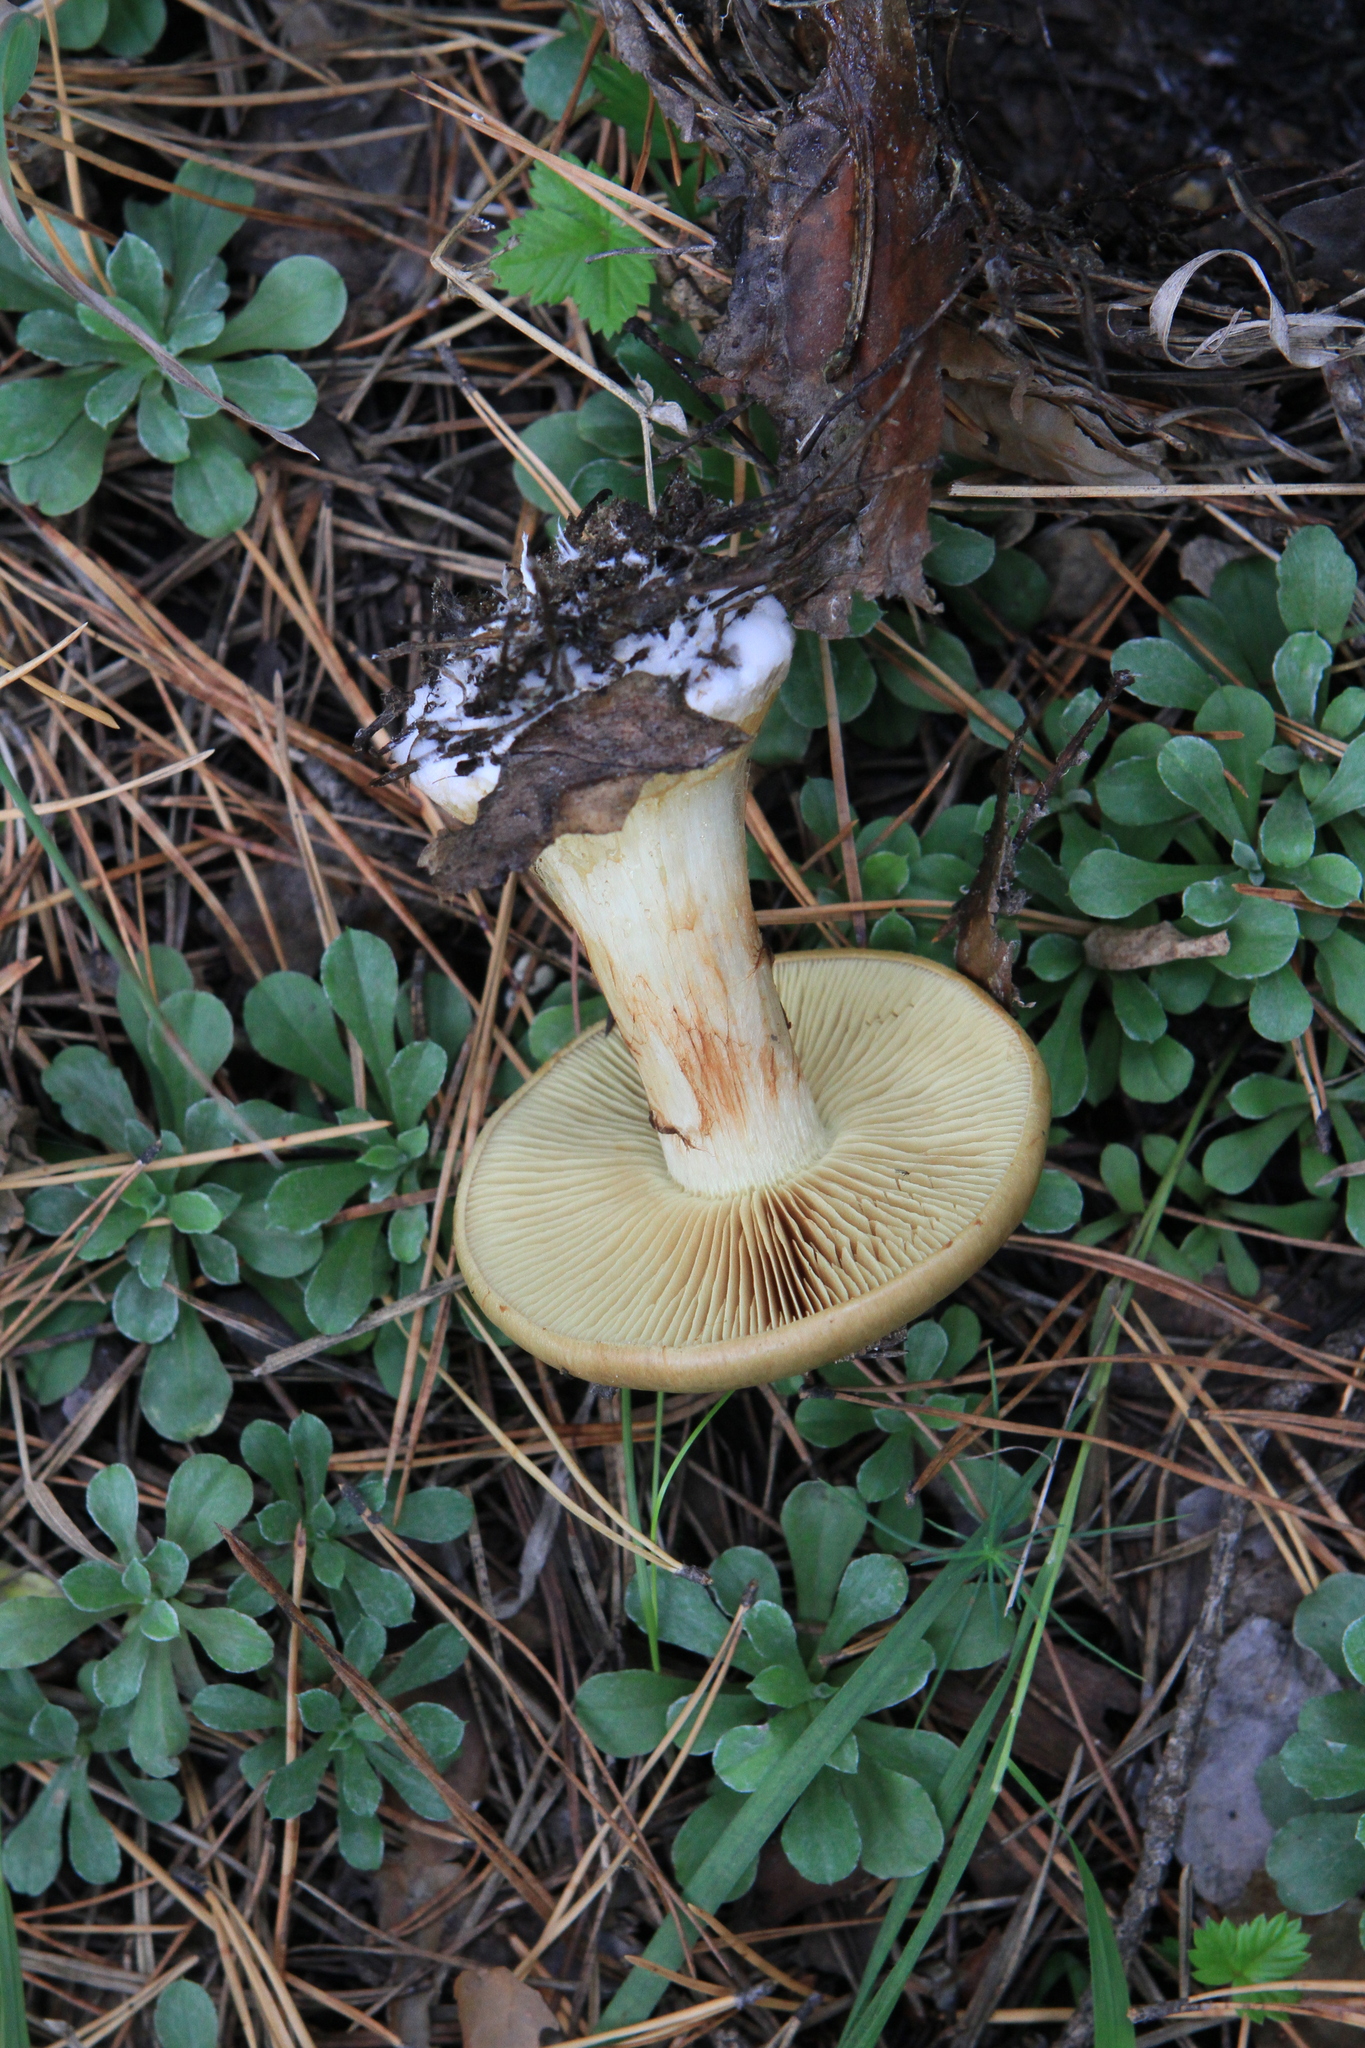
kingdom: Plantae
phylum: Tracheophyta
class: Magnoliopsida
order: Asterales
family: Asteraceae
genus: Antennaria
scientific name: Antennaria dioica
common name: Mountain everlasting
